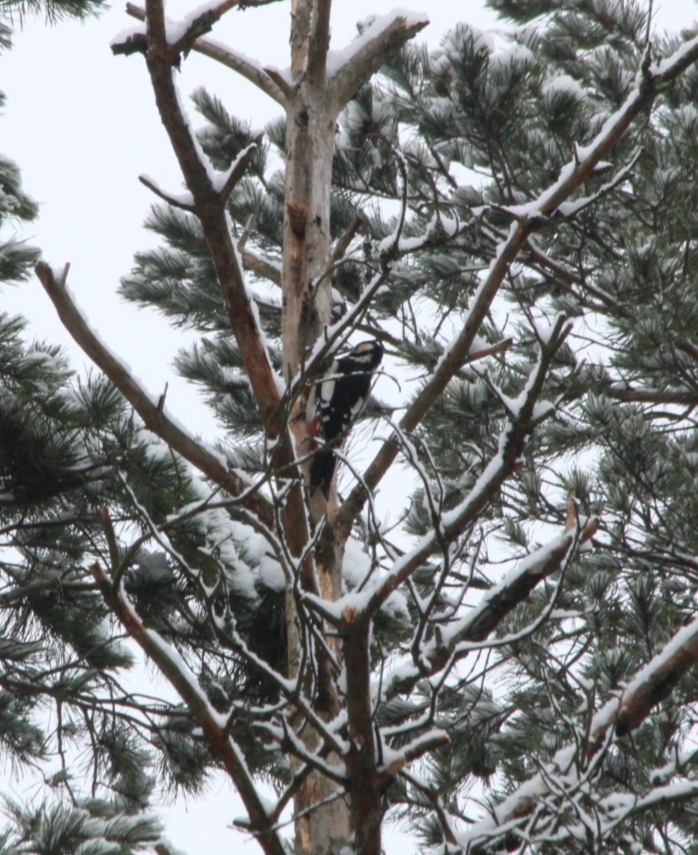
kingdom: Animalia
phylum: Chordata
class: Aves
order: Piciformes
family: Picidae
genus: Dendrocopos
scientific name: Dendrocopos major
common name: Great spotted woodpecker
